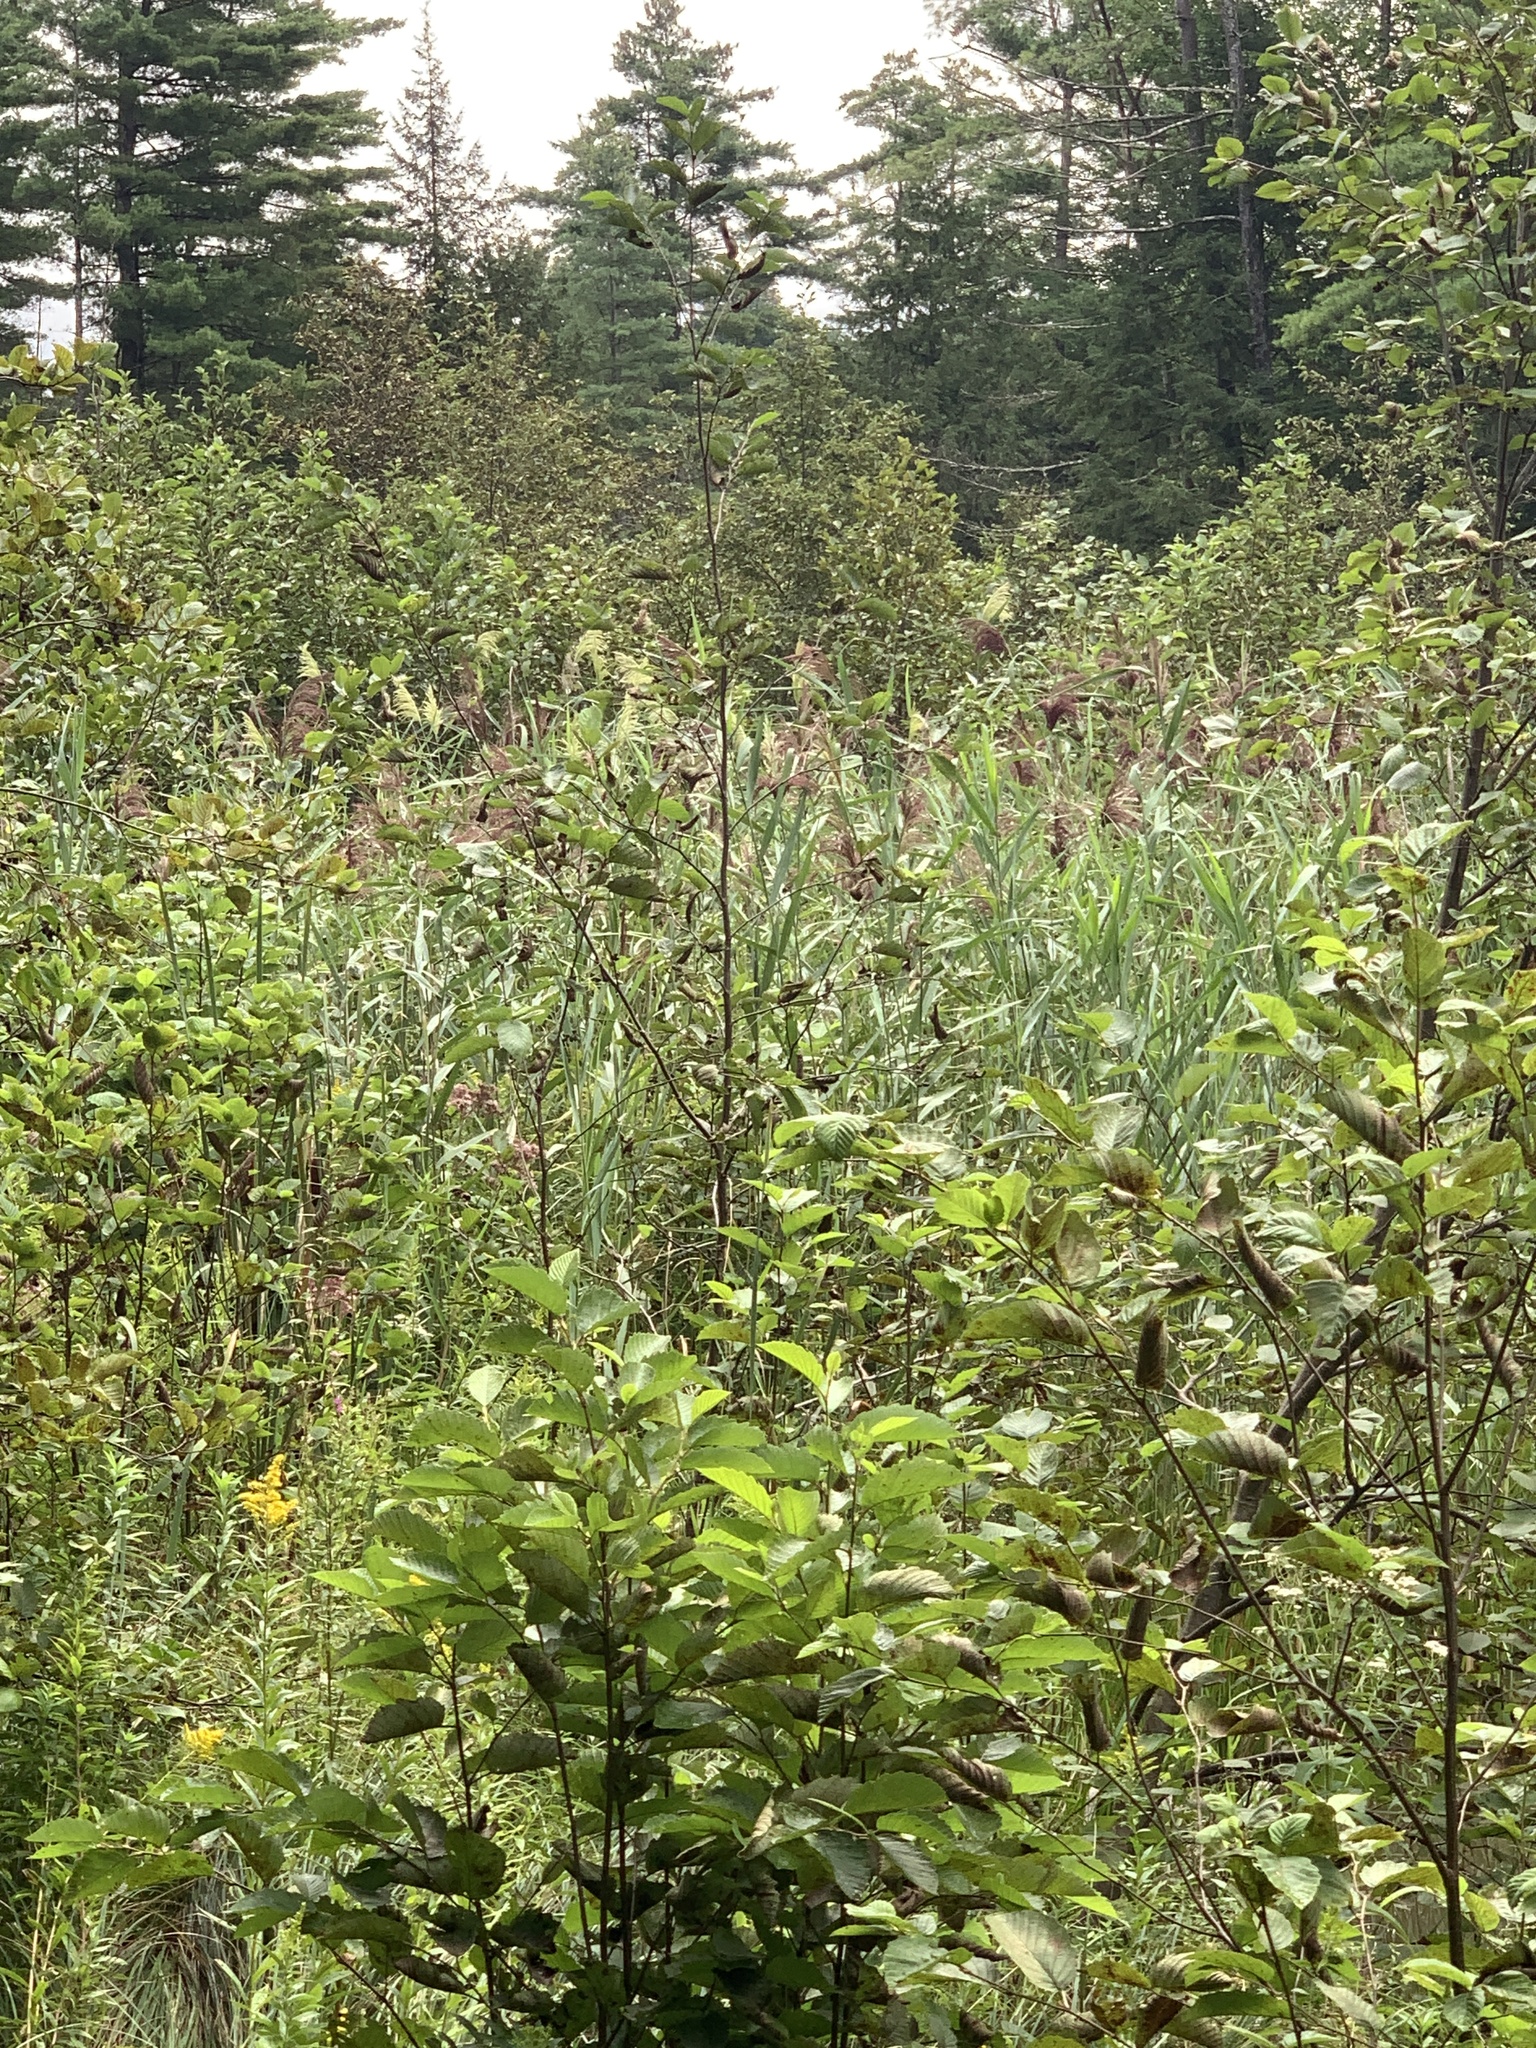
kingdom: Plantae
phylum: Tracheophyta
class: Liliopsida
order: Poales
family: Poaceae
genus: Phragmites
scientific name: Phragmites australis
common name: Common reed
